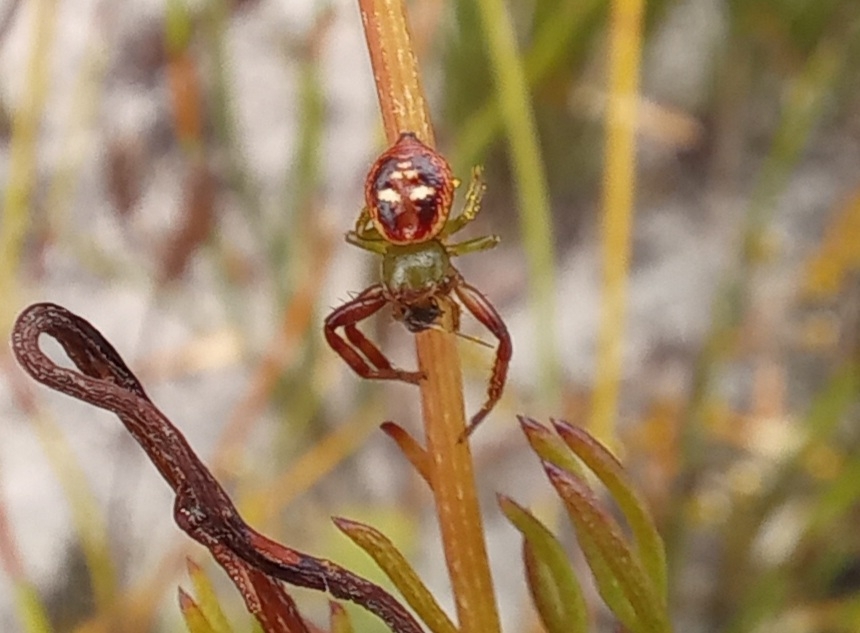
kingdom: Animalia
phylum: Arthropoda
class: Arachnida
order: Araneae
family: Thomisidae
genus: Synema
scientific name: Synema imitatrix
